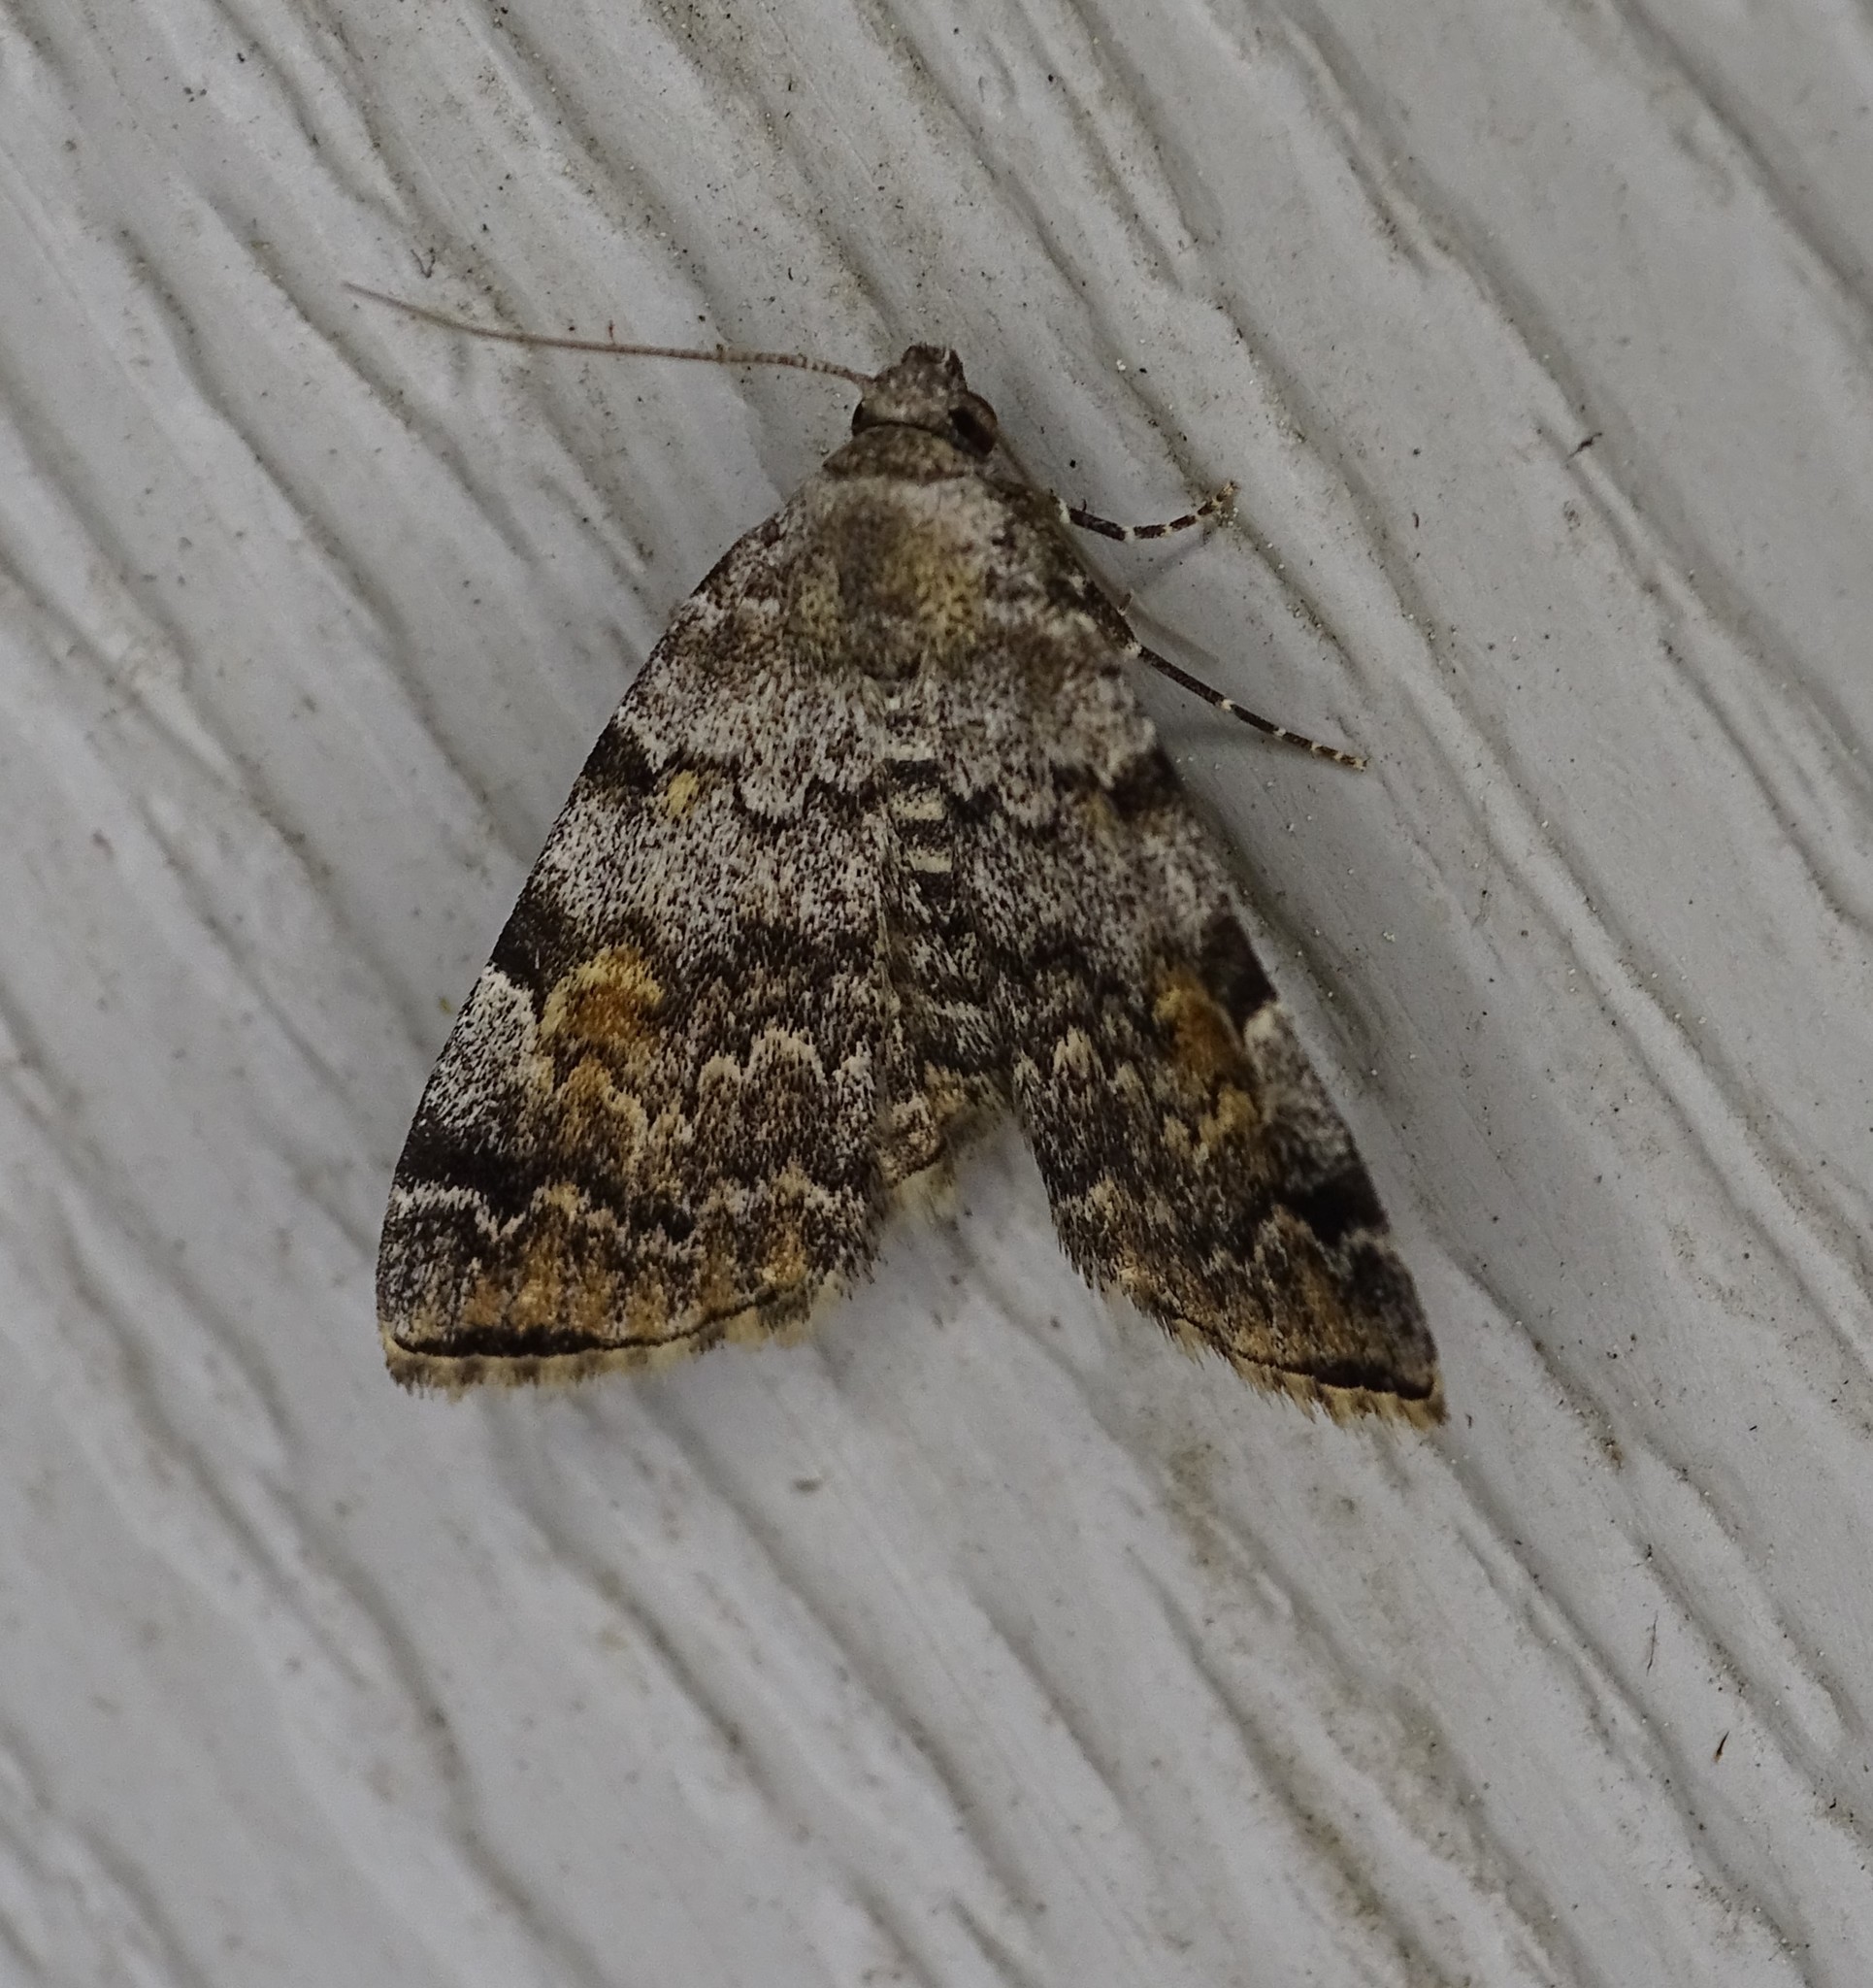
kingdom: Animalia
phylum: Arthropoda
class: Insecta
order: Lepidoptera
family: Erebidae
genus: Idia
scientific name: Idia americalis
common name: American idia moth
